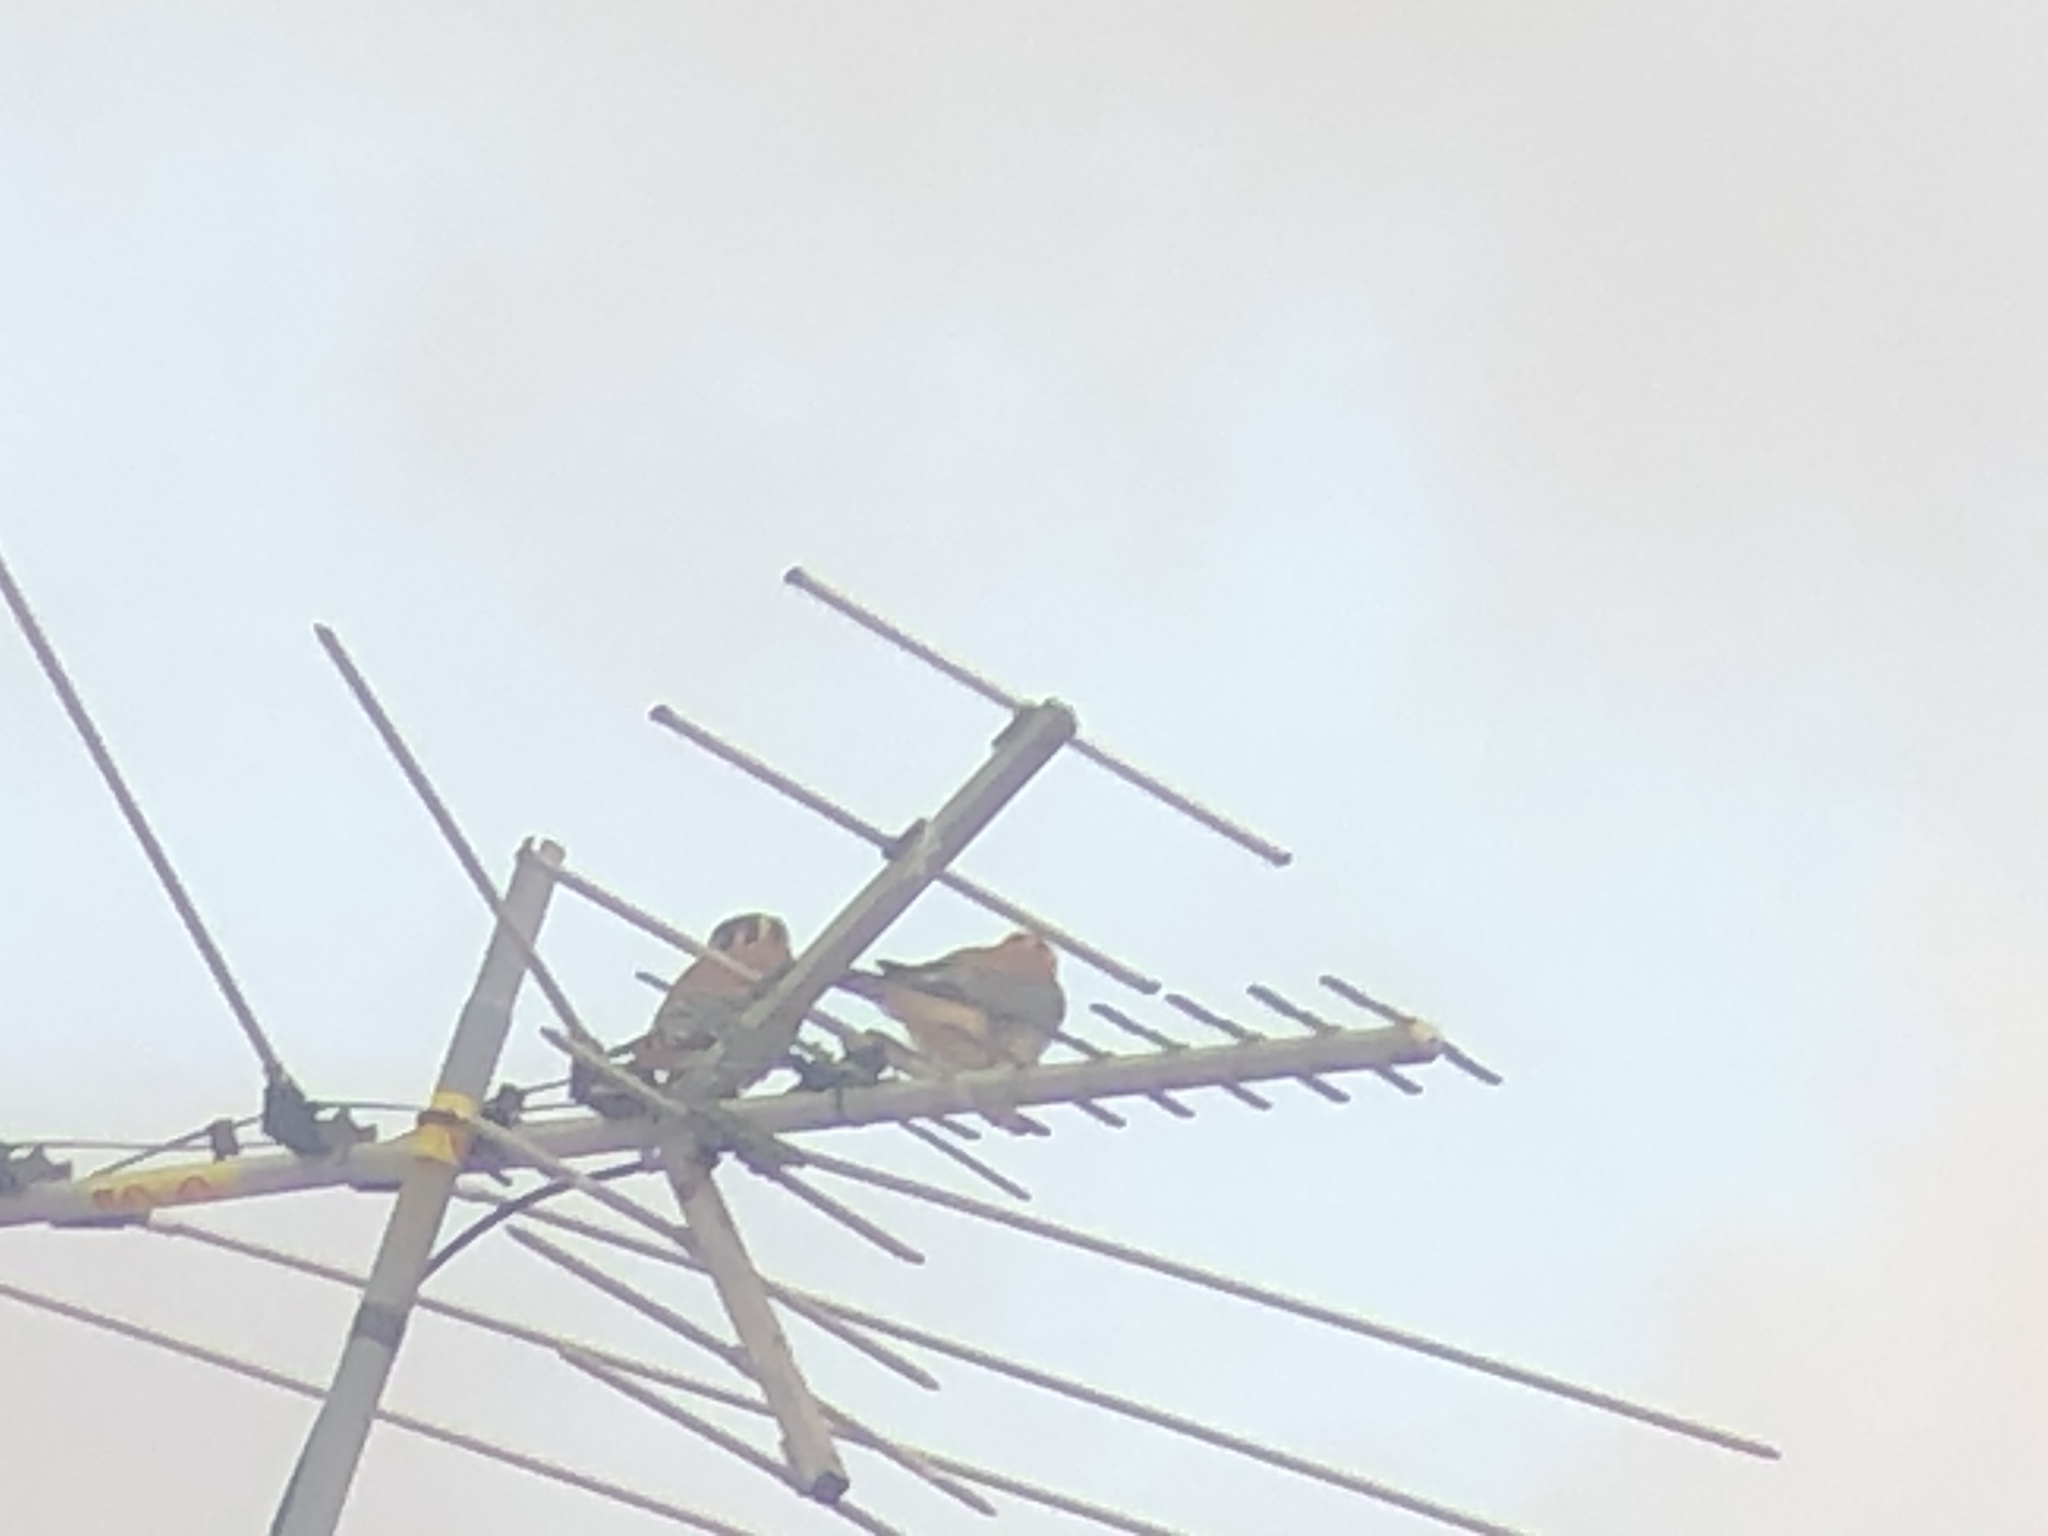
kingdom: Animalia
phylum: Chordata
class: Aves
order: Falconiformes
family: Falconidae
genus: Falco
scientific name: Falco sparverius
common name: American kestrel
